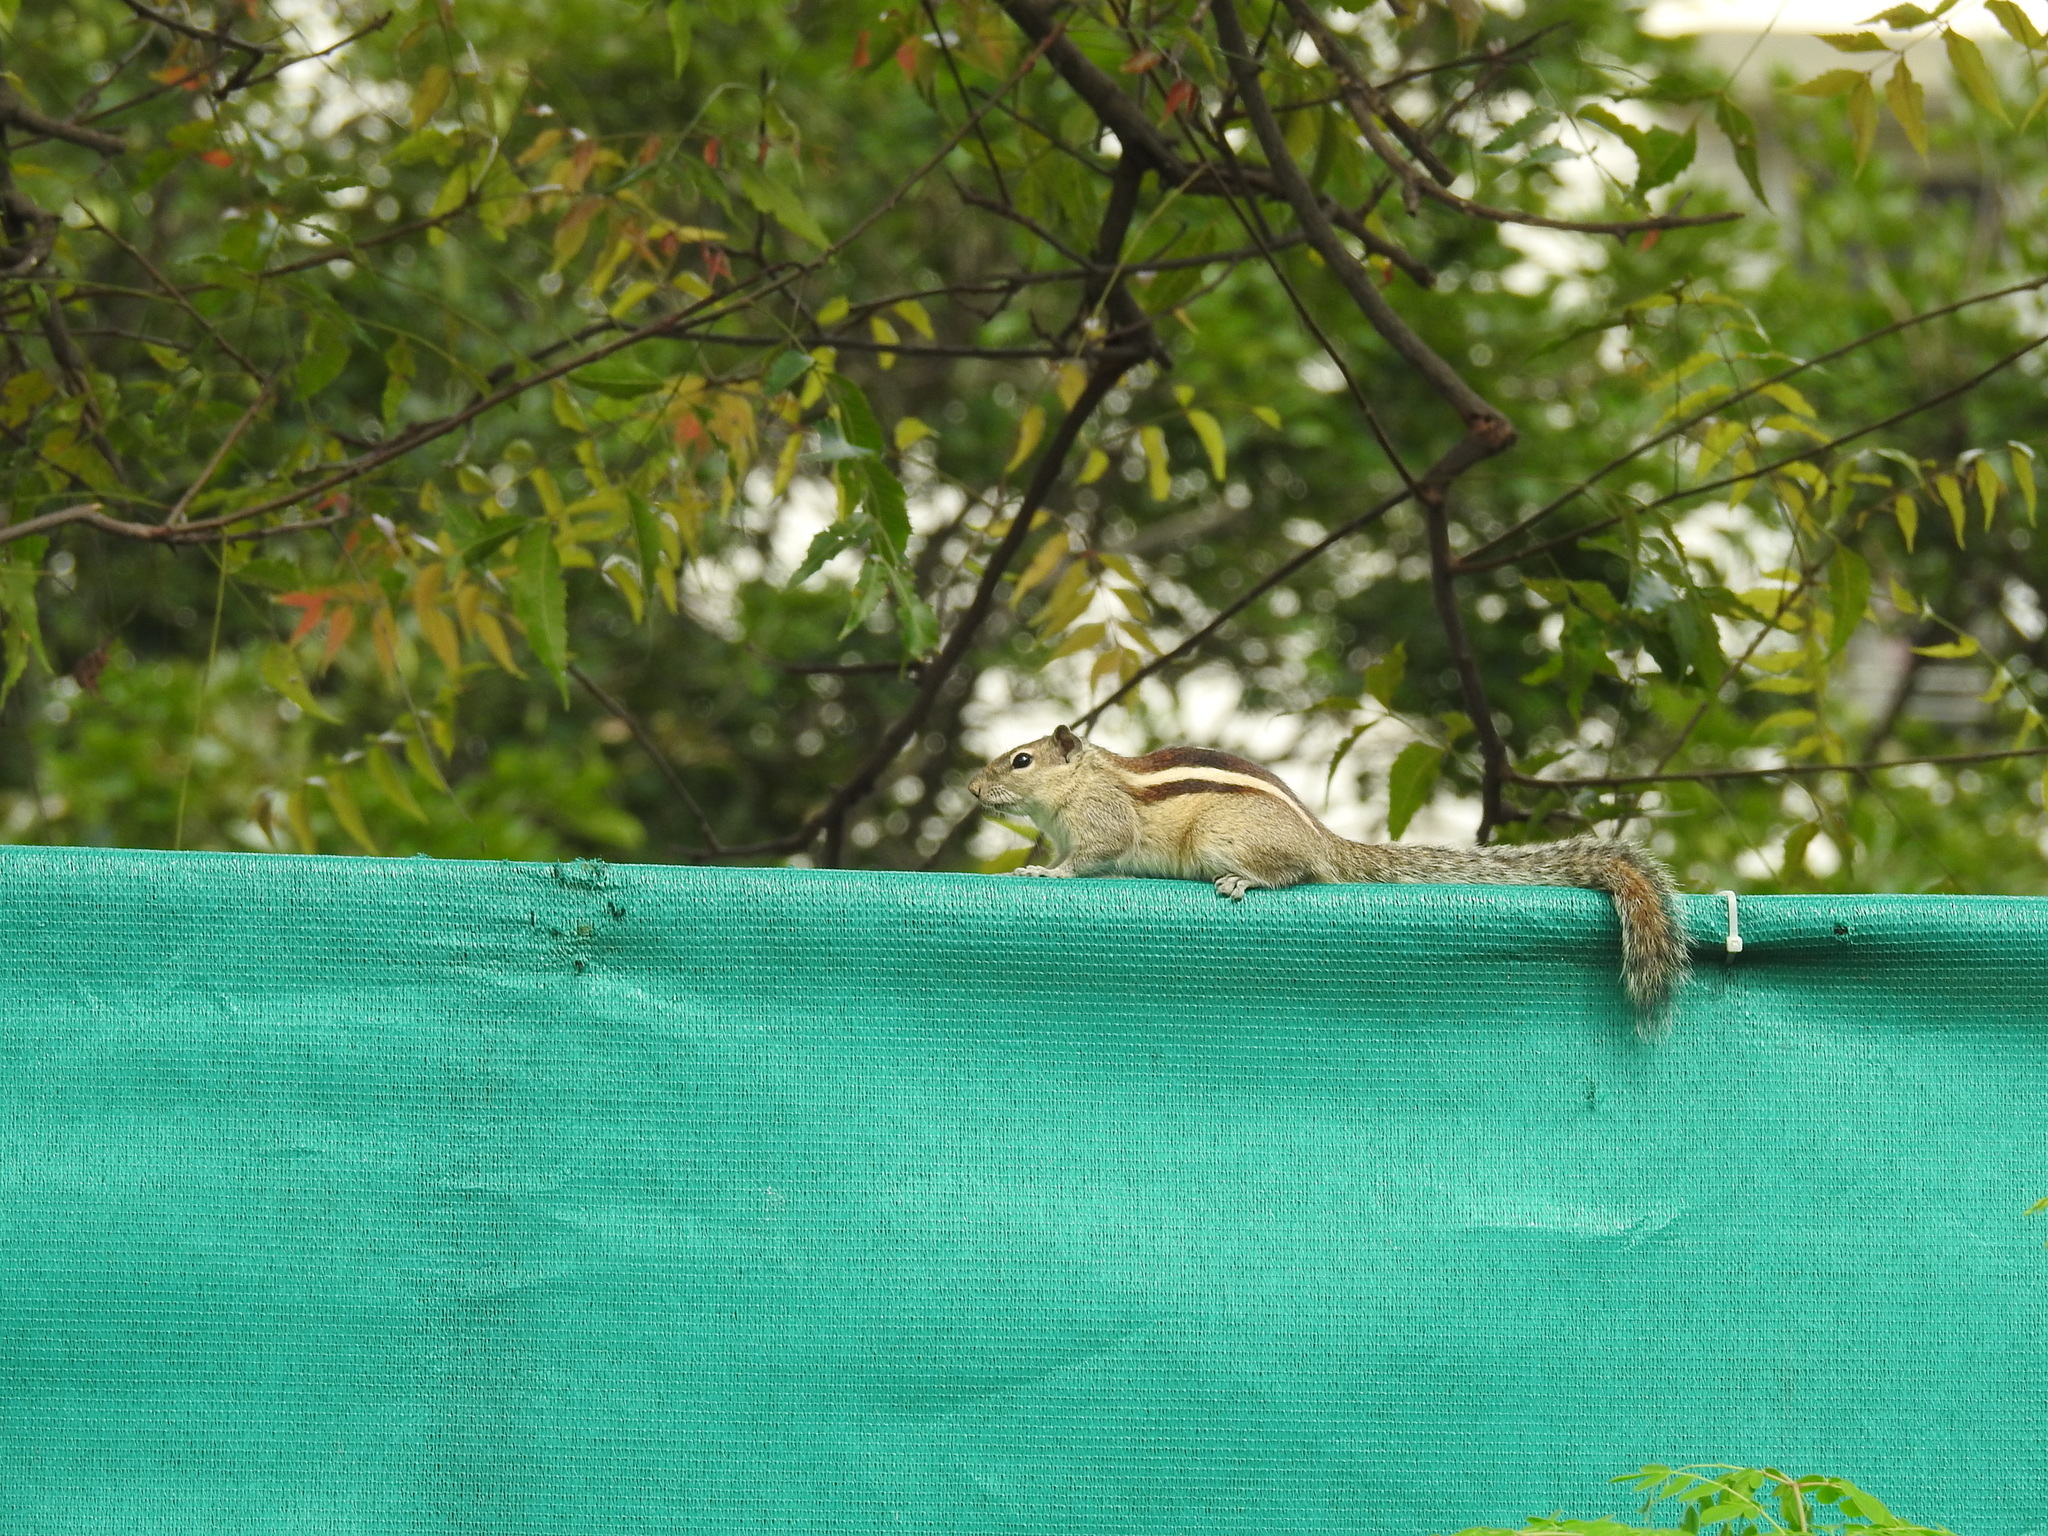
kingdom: Animalia
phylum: Chordata
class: Mammalia
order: Rodentia
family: Sciuridae
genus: Funambulus
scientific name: Funambulus palmarum
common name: Indian palm squirrel
